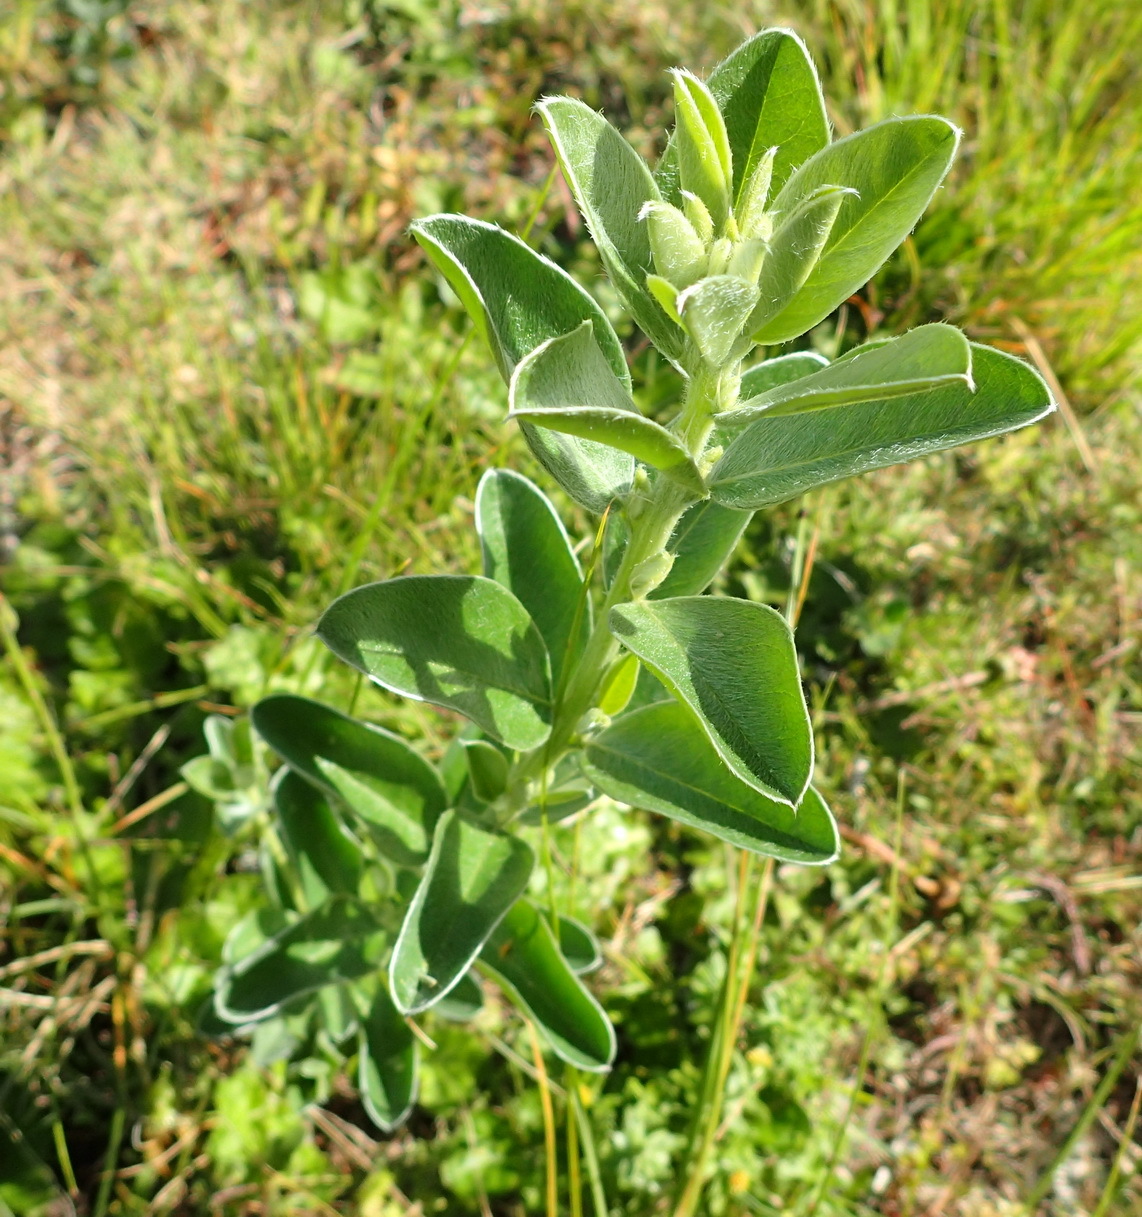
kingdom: Plantae
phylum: Tracheophyta
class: Magnoliopsida
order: Fabales
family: Fabaceae
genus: Podalyria
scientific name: Podalyria myrtillifolia
